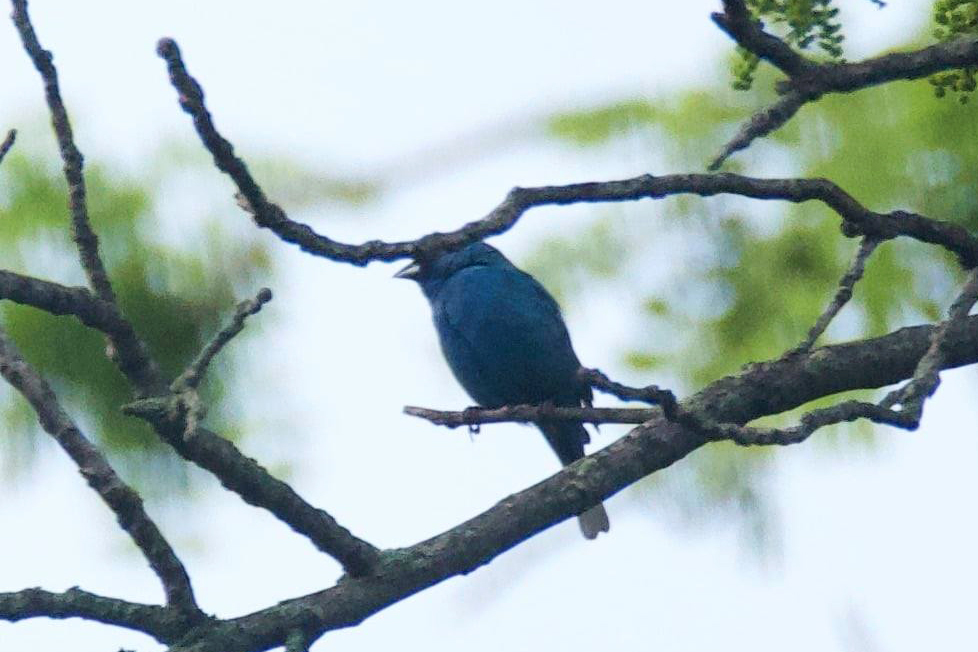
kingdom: Animalia
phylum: Chordata
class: Aves
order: Passeriformes
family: Cardinalidae
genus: Passerina
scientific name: Passerina cyanea
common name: Indigo bunting
